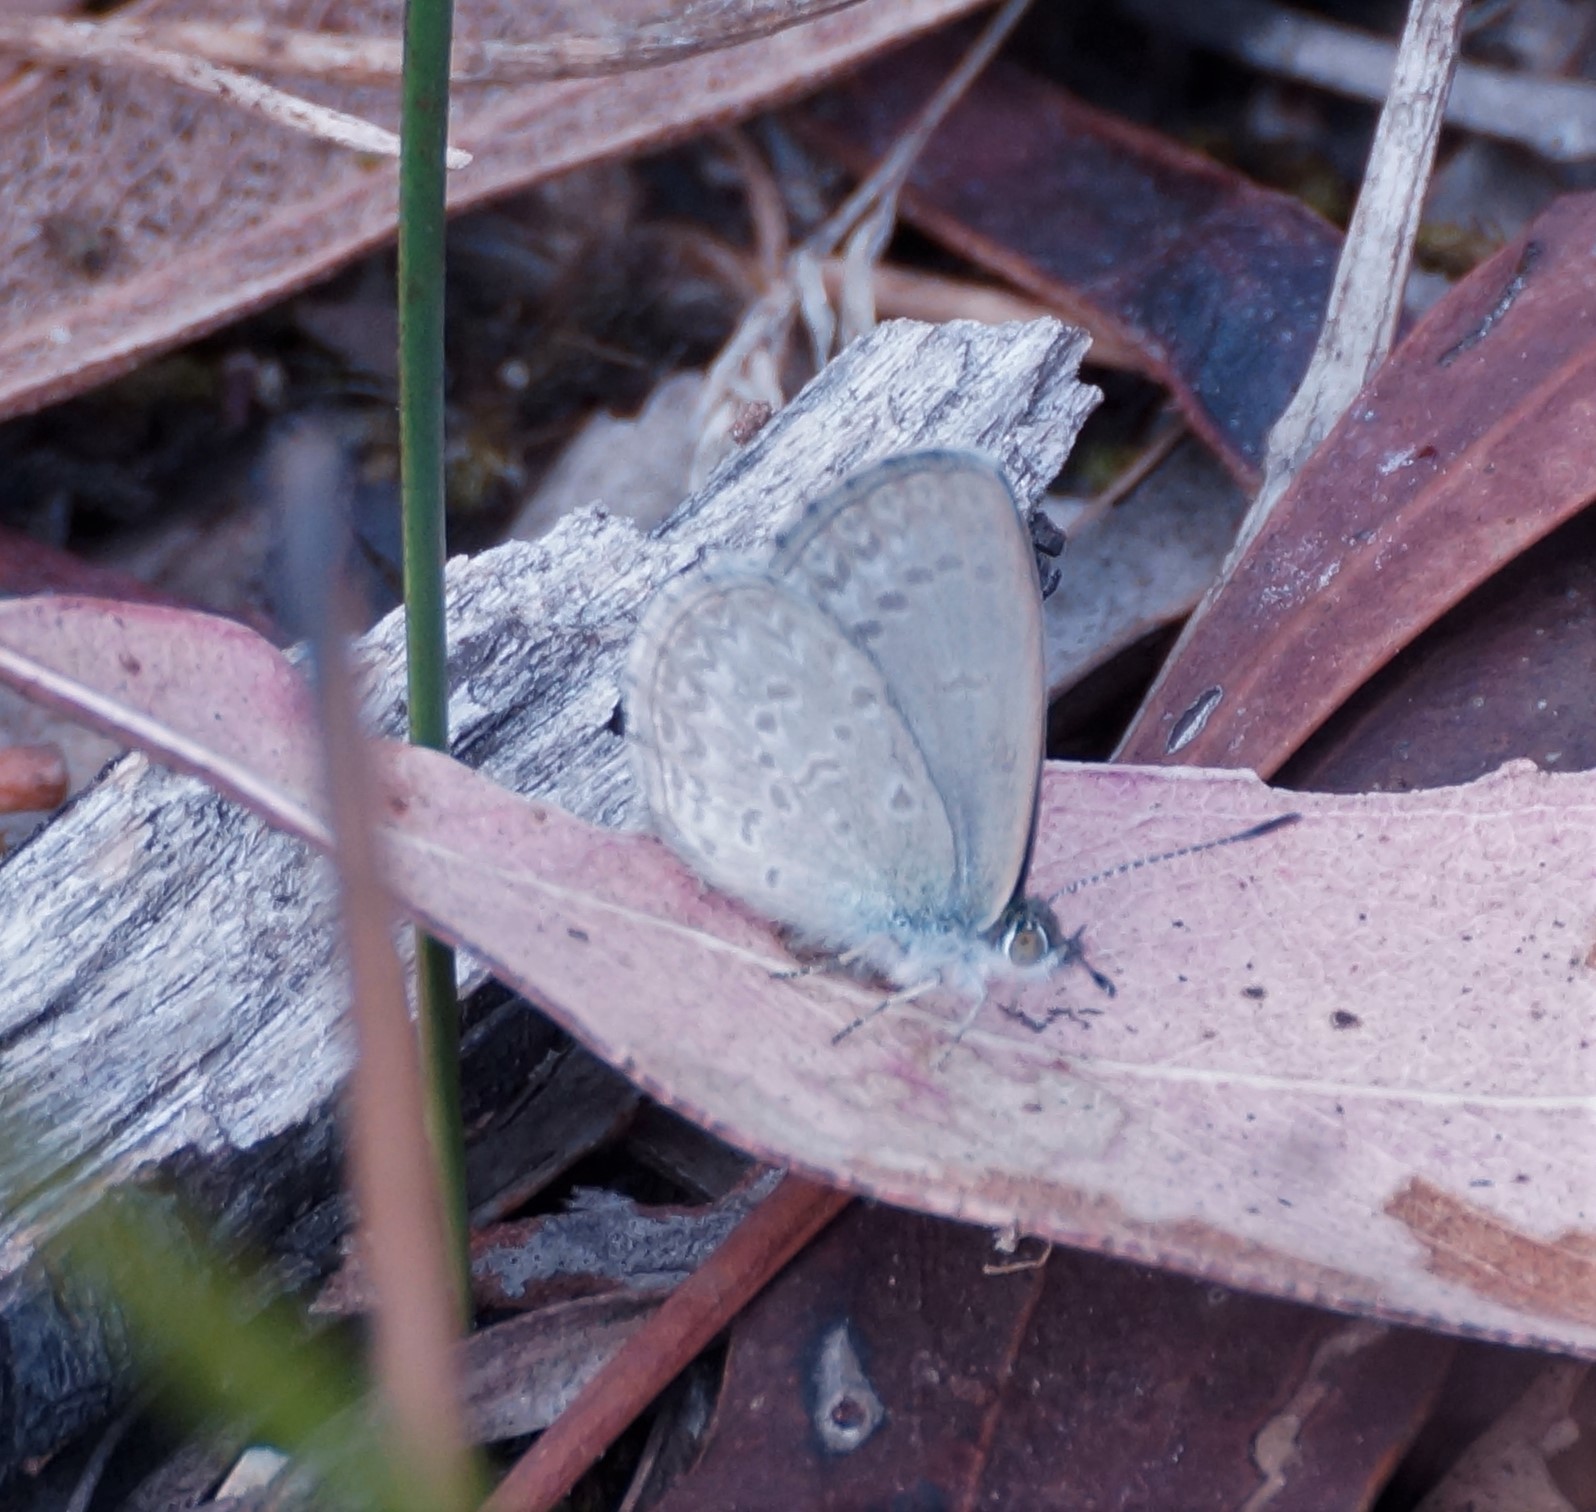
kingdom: Animalia
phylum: Arthropoda
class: Insecta
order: Lepidoptera
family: Lycaenidae
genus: Zizina
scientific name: Zizina labradus
